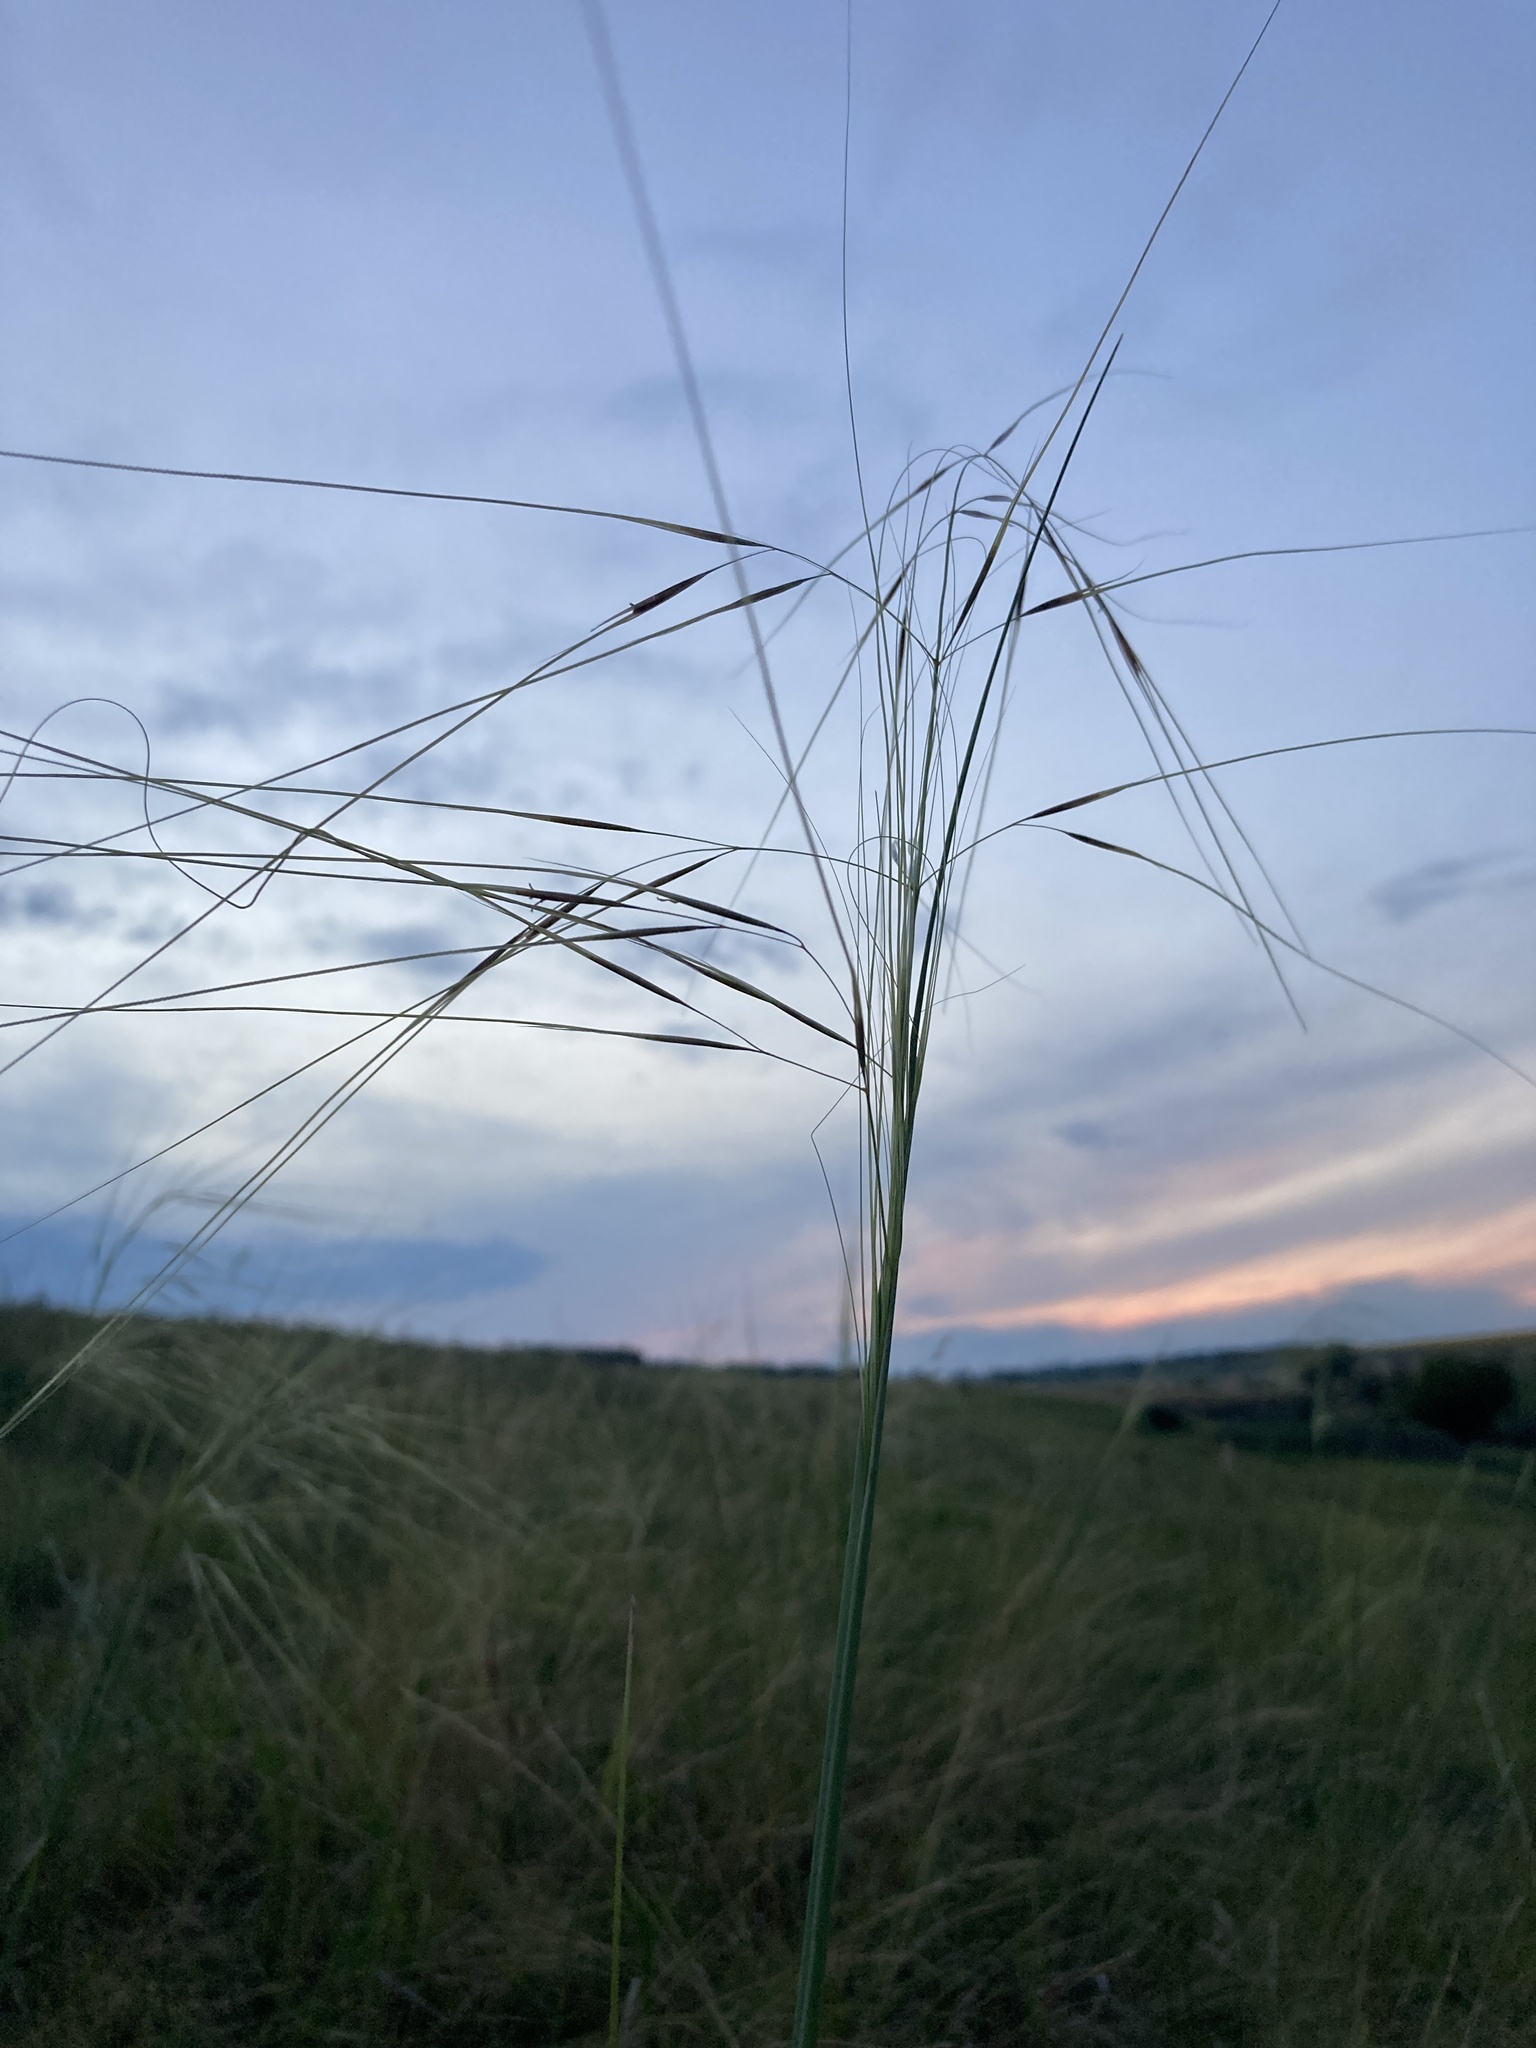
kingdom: Plantae
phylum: Tracheophyta
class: Liliopsida
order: Poales
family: Poaceae
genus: Stipa
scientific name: Stipa capillata
